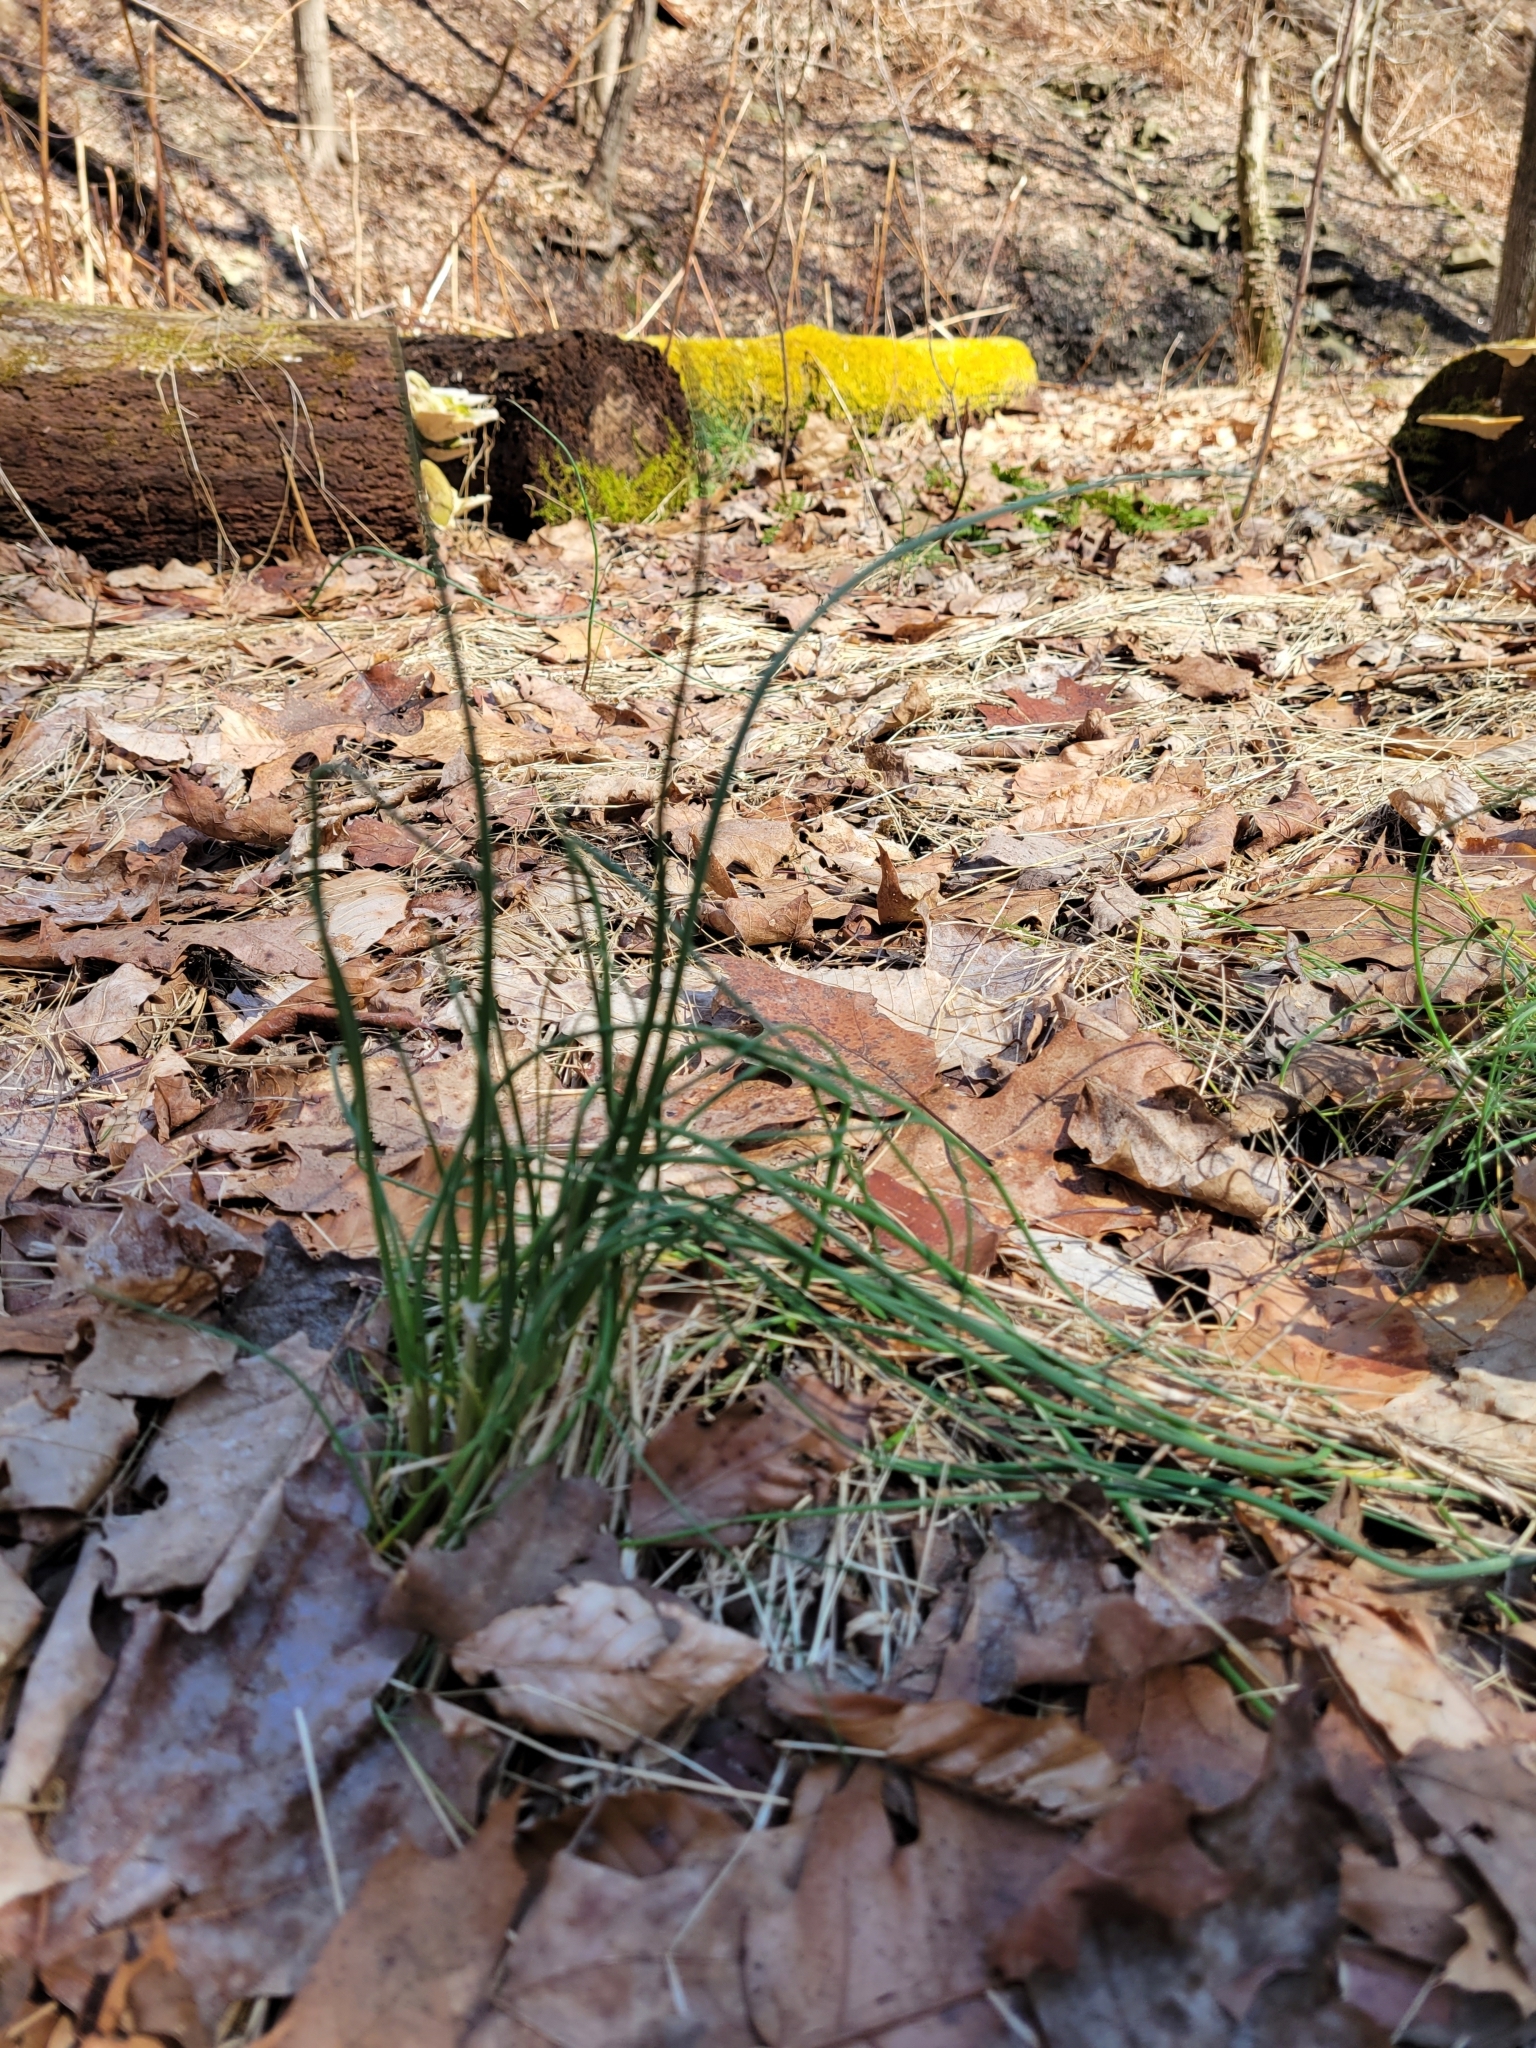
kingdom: Plantae
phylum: Tracheophyta
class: Liliopsida
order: Asparagales
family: Amaryllidaceae
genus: Allium
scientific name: Allium vineale
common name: Crow garlic
